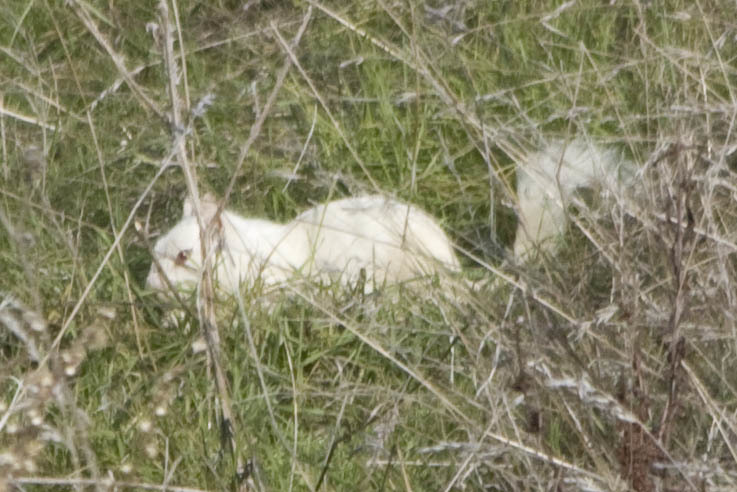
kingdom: Animalia
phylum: Chordata
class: Mammalia
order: Rodentia
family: Sciuridae
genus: Otospermophilus
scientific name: Otospermophilus beecheyi
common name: California ground squirrel
